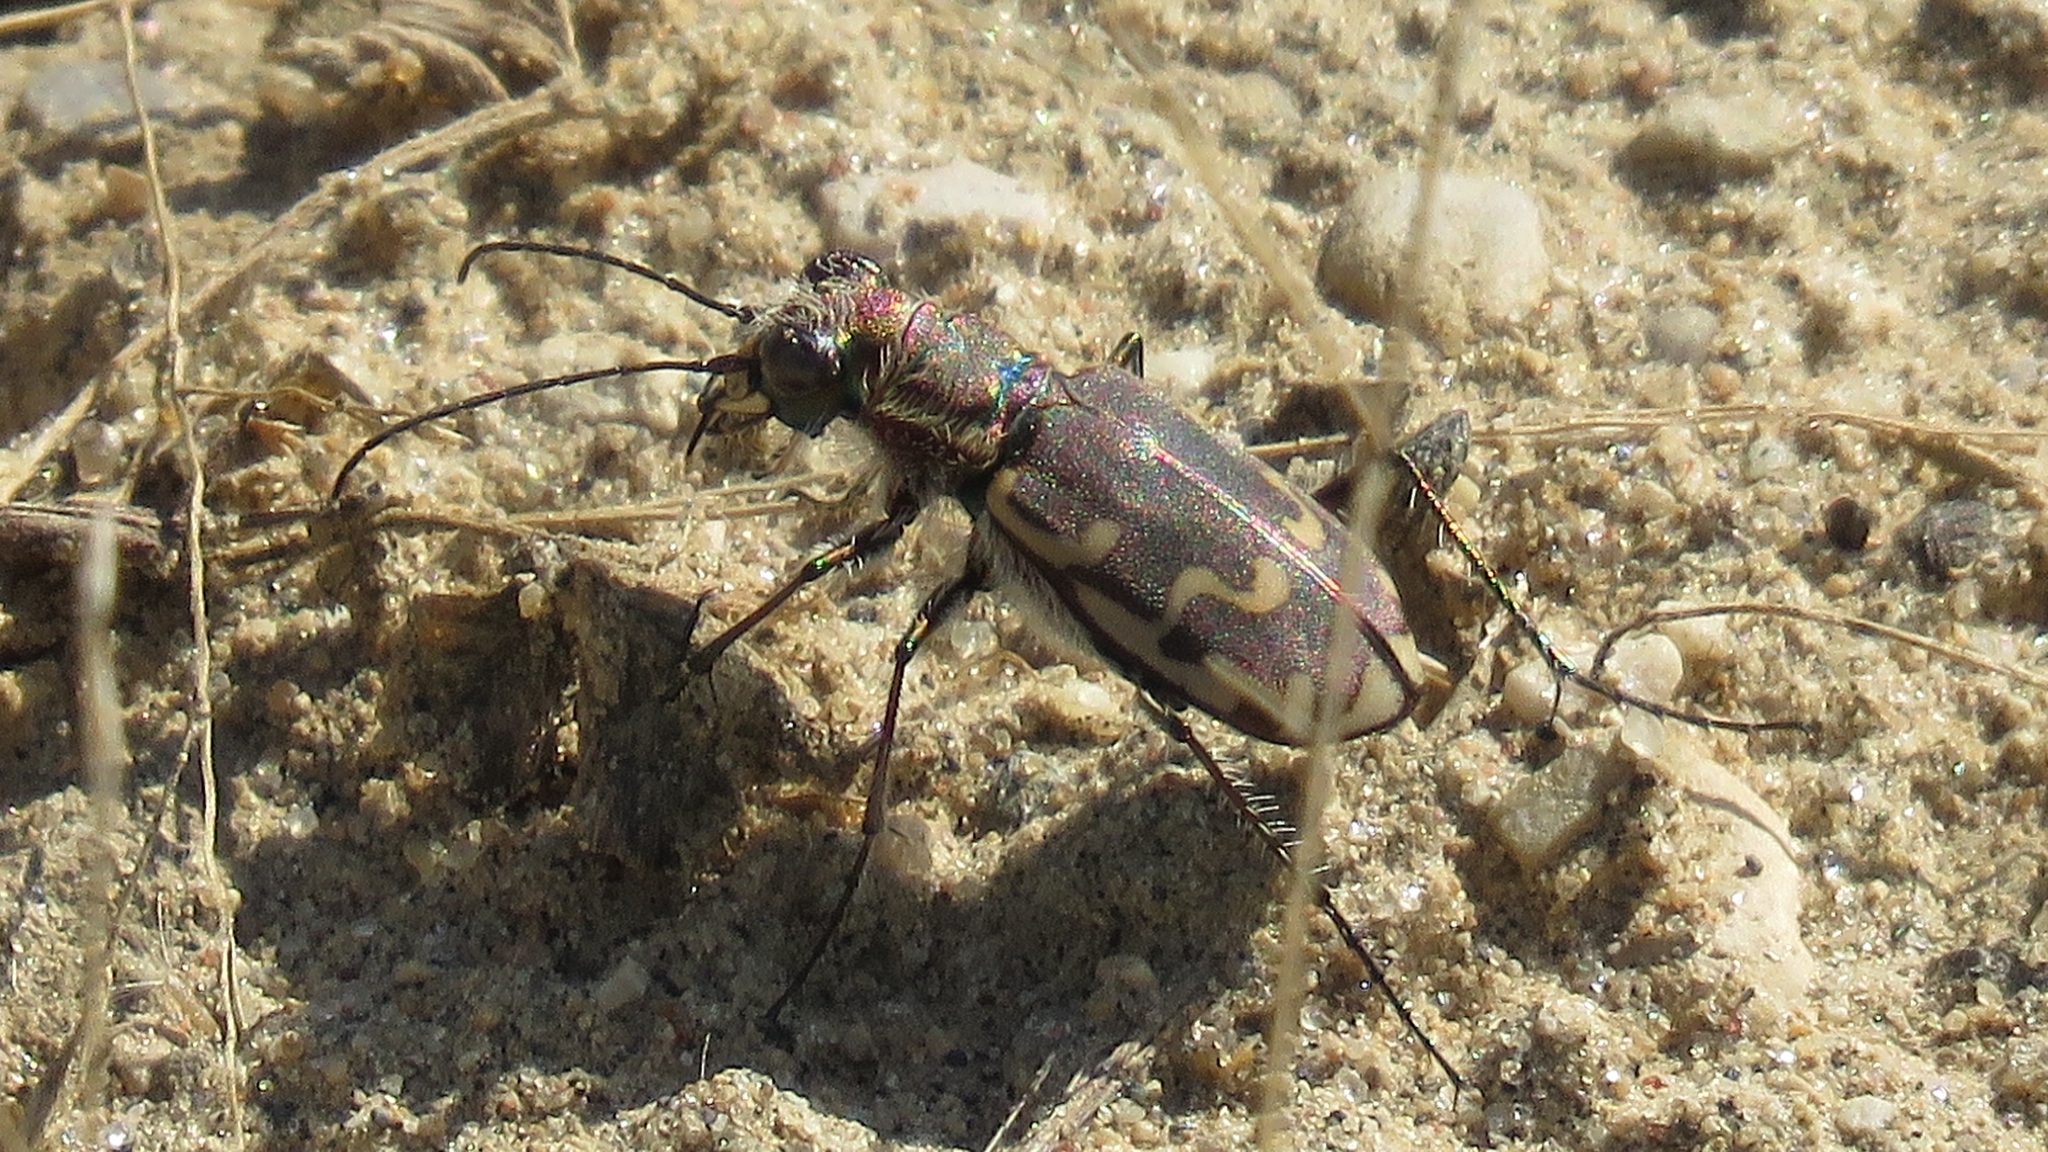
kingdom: Animalia
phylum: Arthropoda
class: Insecta
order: Coleoptera
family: Carabidae
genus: Cicindela
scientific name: Cicindela repanda
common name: Bronzed tiger beetle
